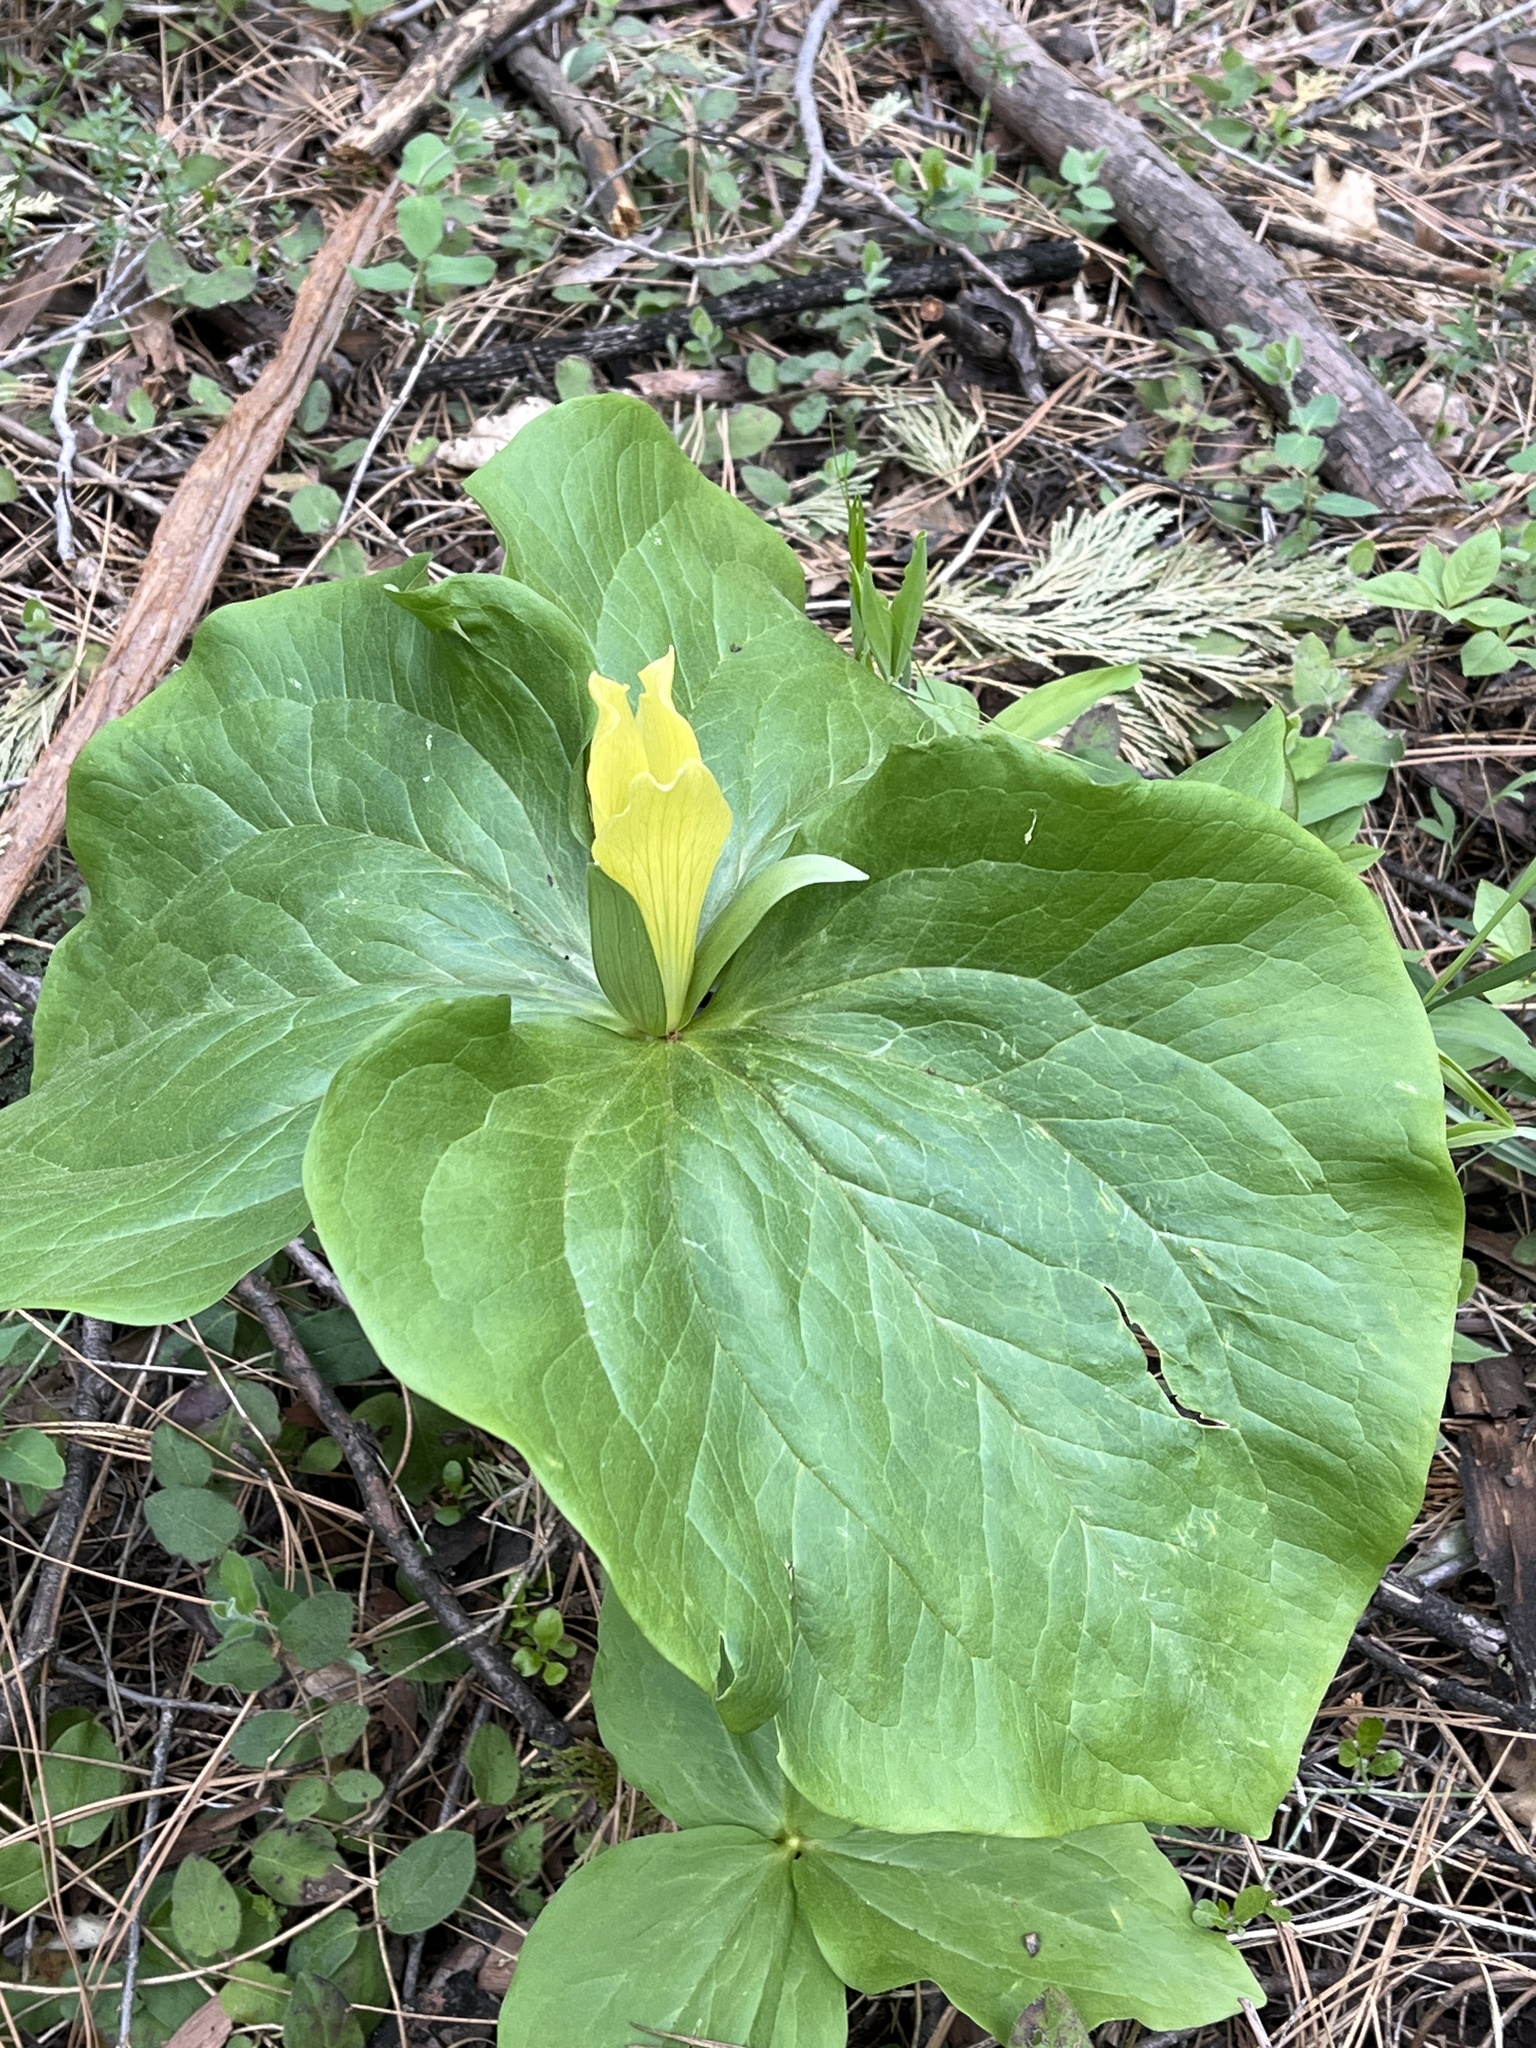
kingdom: Plantae
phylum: Tracheophyta
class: Liliopsida
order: Liliales
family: Melanthiaceae
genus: Trillium
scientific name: Trillium albidum
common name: Freeman's trillium
